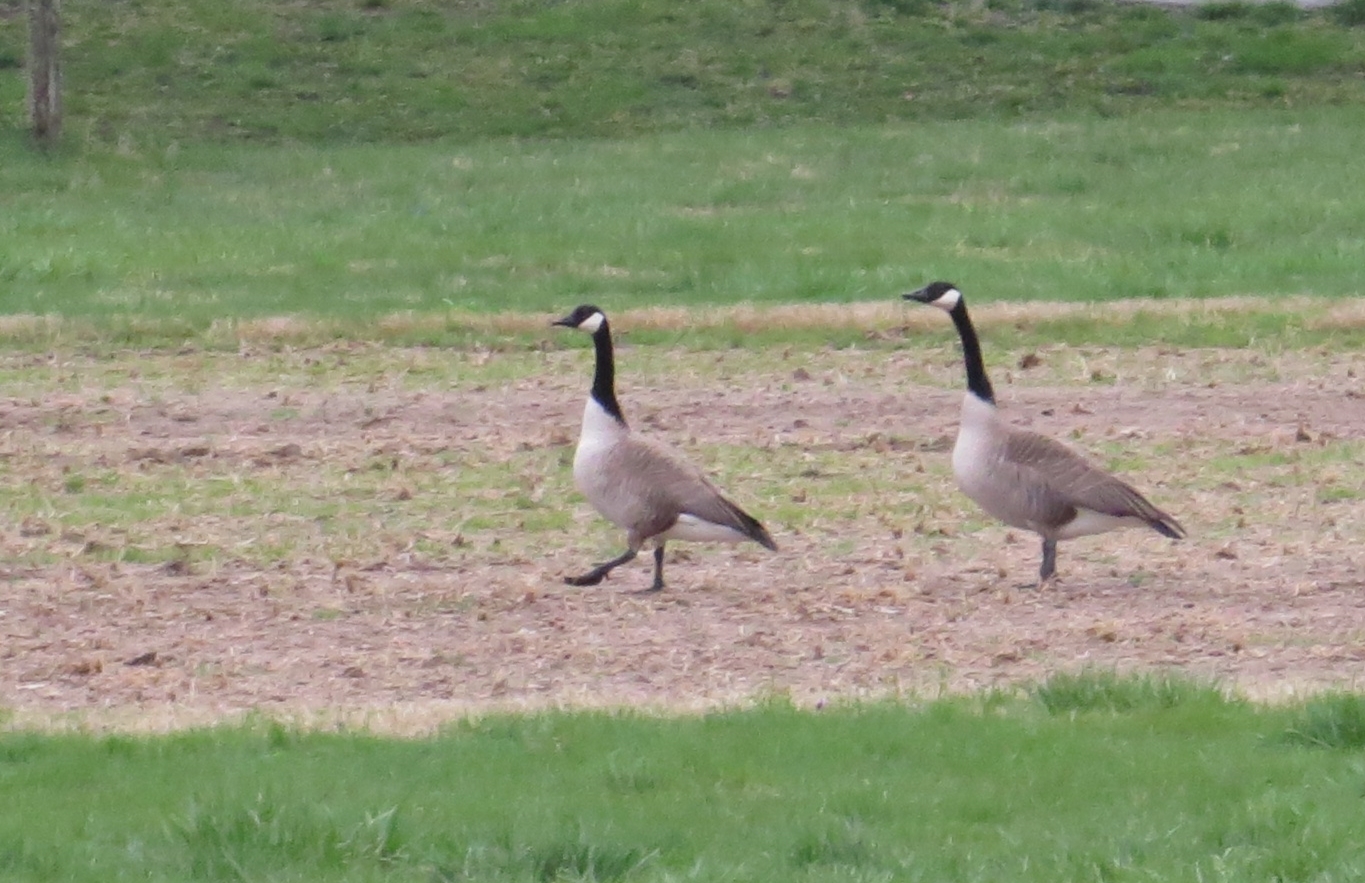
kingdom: Animalia
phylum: Chordata
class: Aves
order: Anseriformes
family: Anatidae
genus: Branta
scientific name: Branta canadensis
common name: Canada goose
